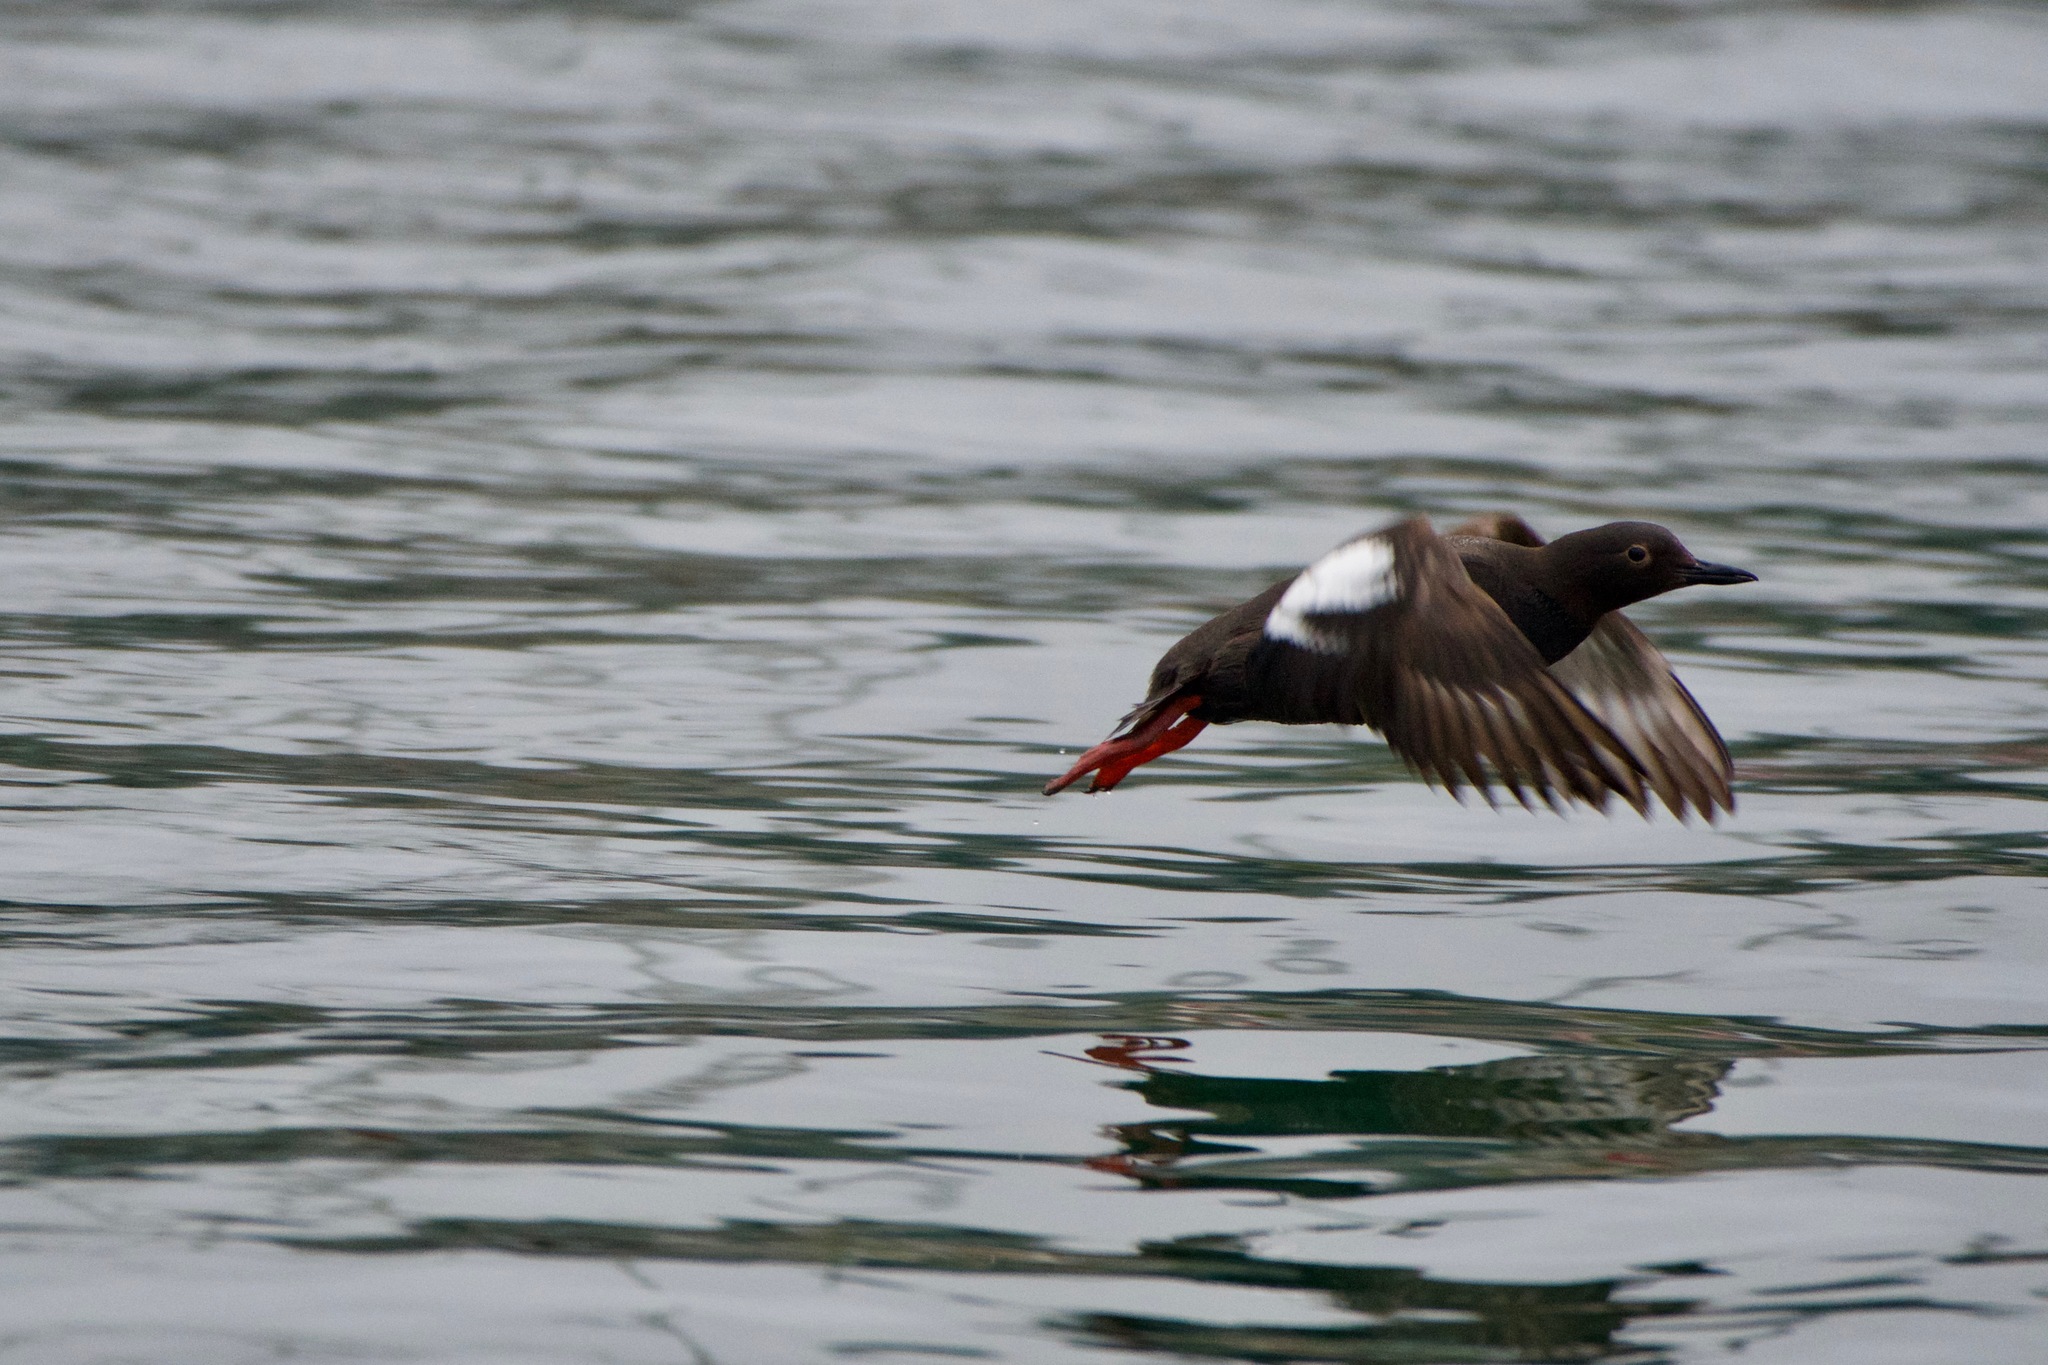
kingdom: Animalia
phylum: Chordata
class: Aves
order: Charadriiformes
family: Alcidae
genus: Cepphus
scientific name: Cepphus columba
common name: Pigeon guillemot
